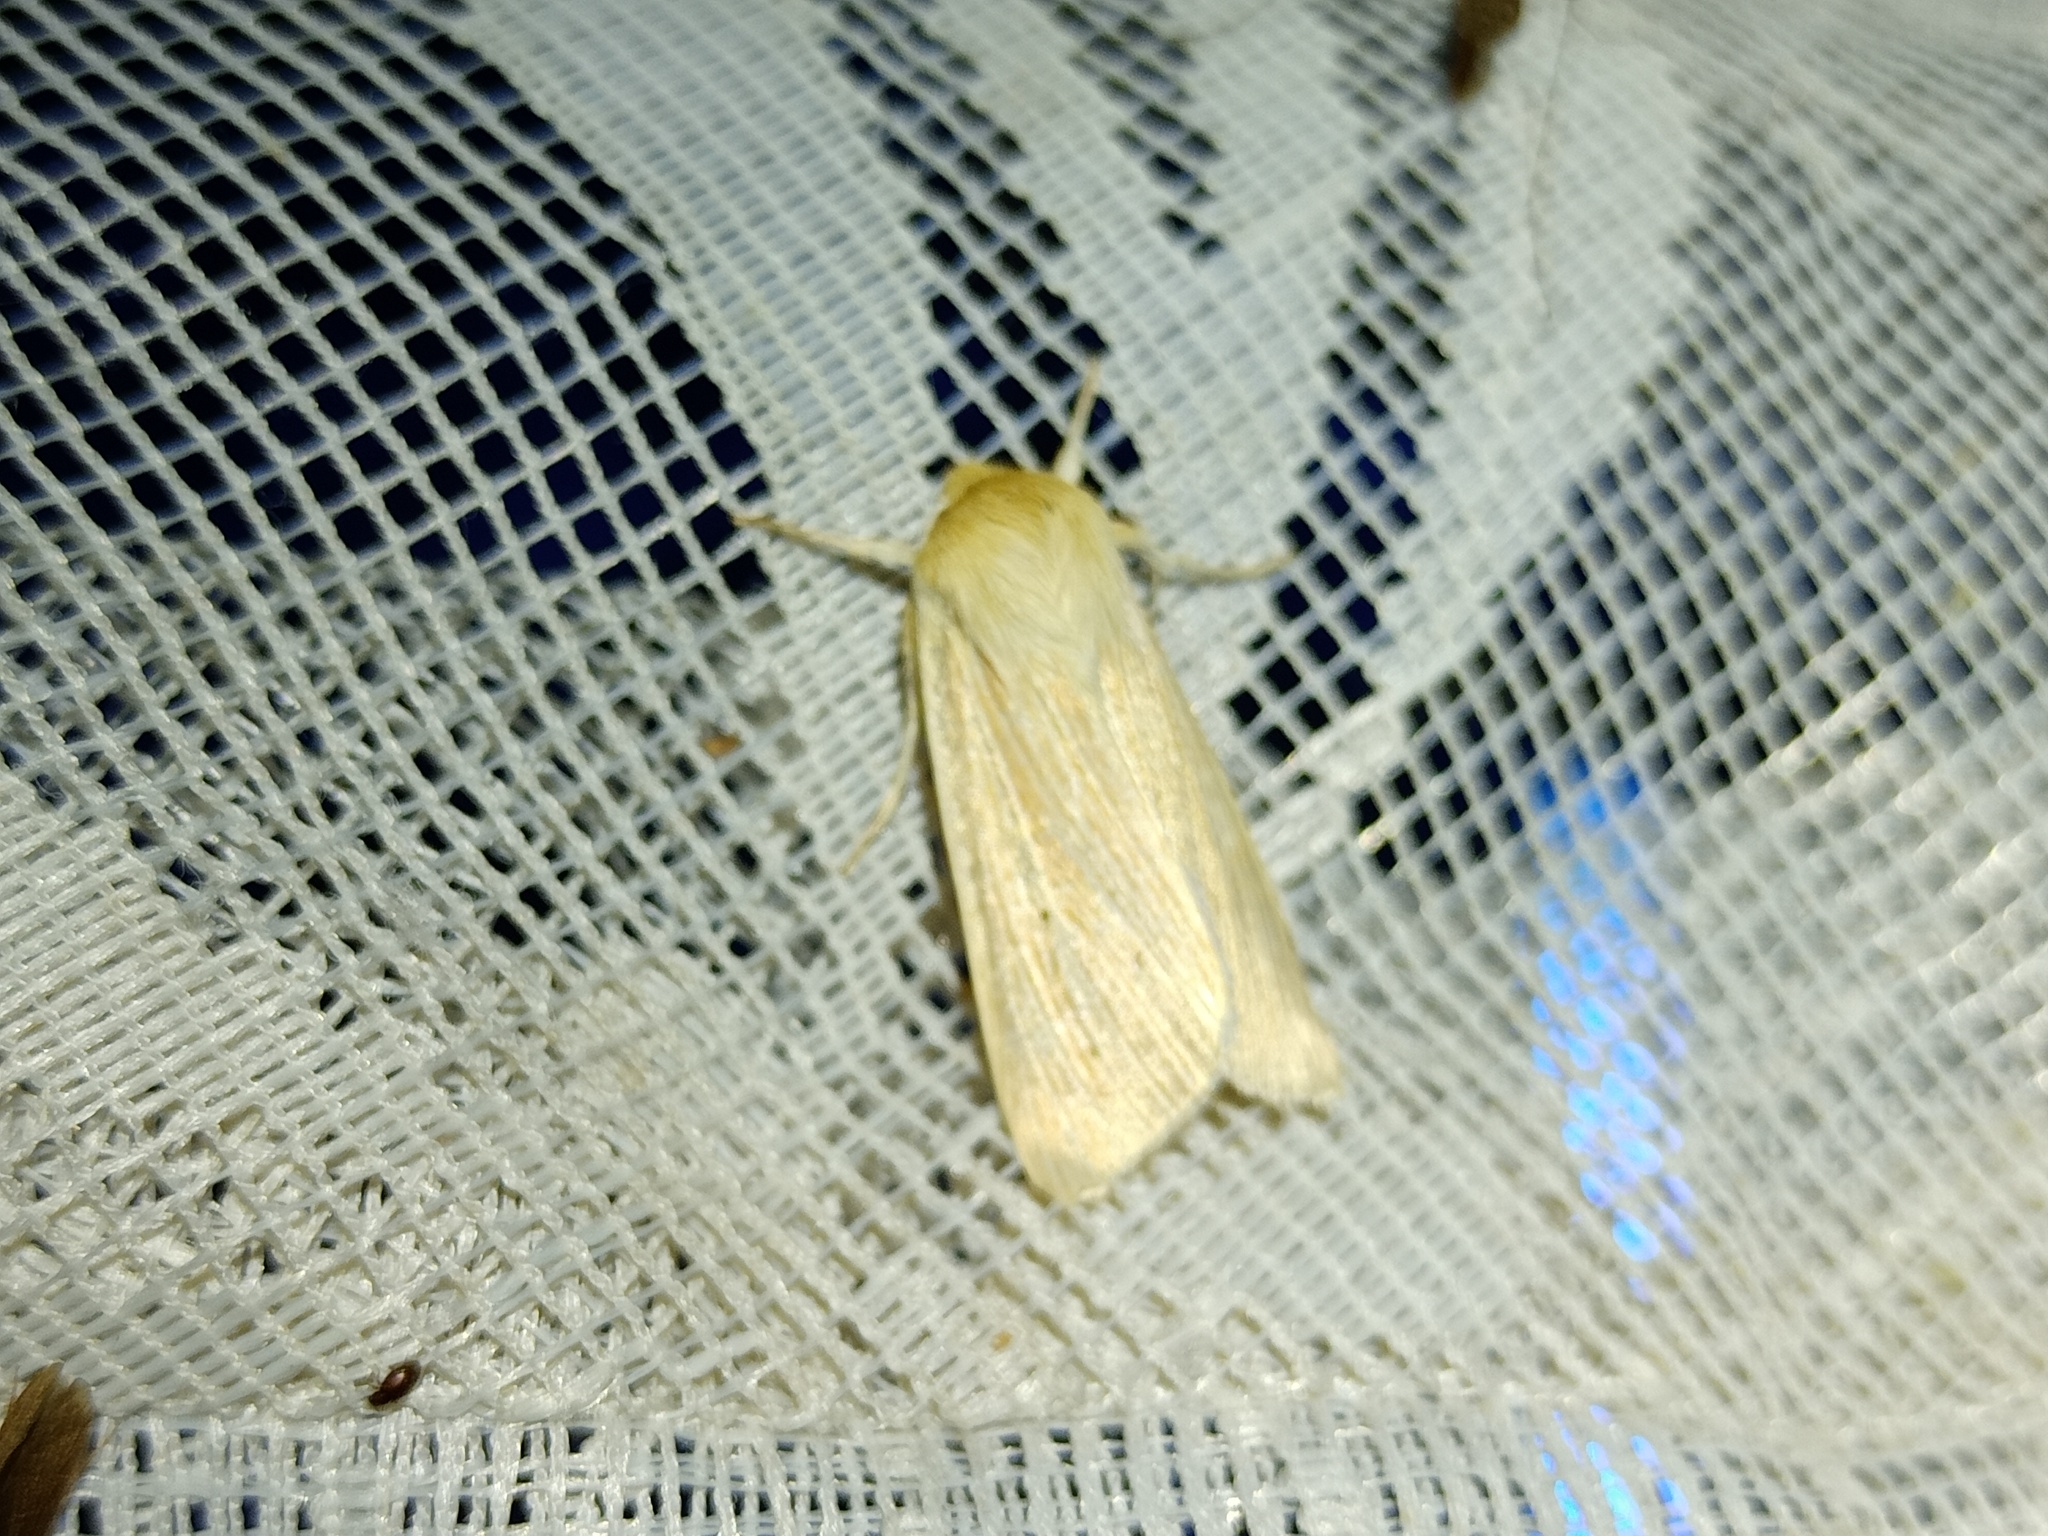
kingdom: Animalia
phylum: Arthropoda
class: Insecta
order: Lepidoptera
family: Noctuidae
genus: Mythimna
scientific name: Mythimna pallens
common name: Common wainscot
